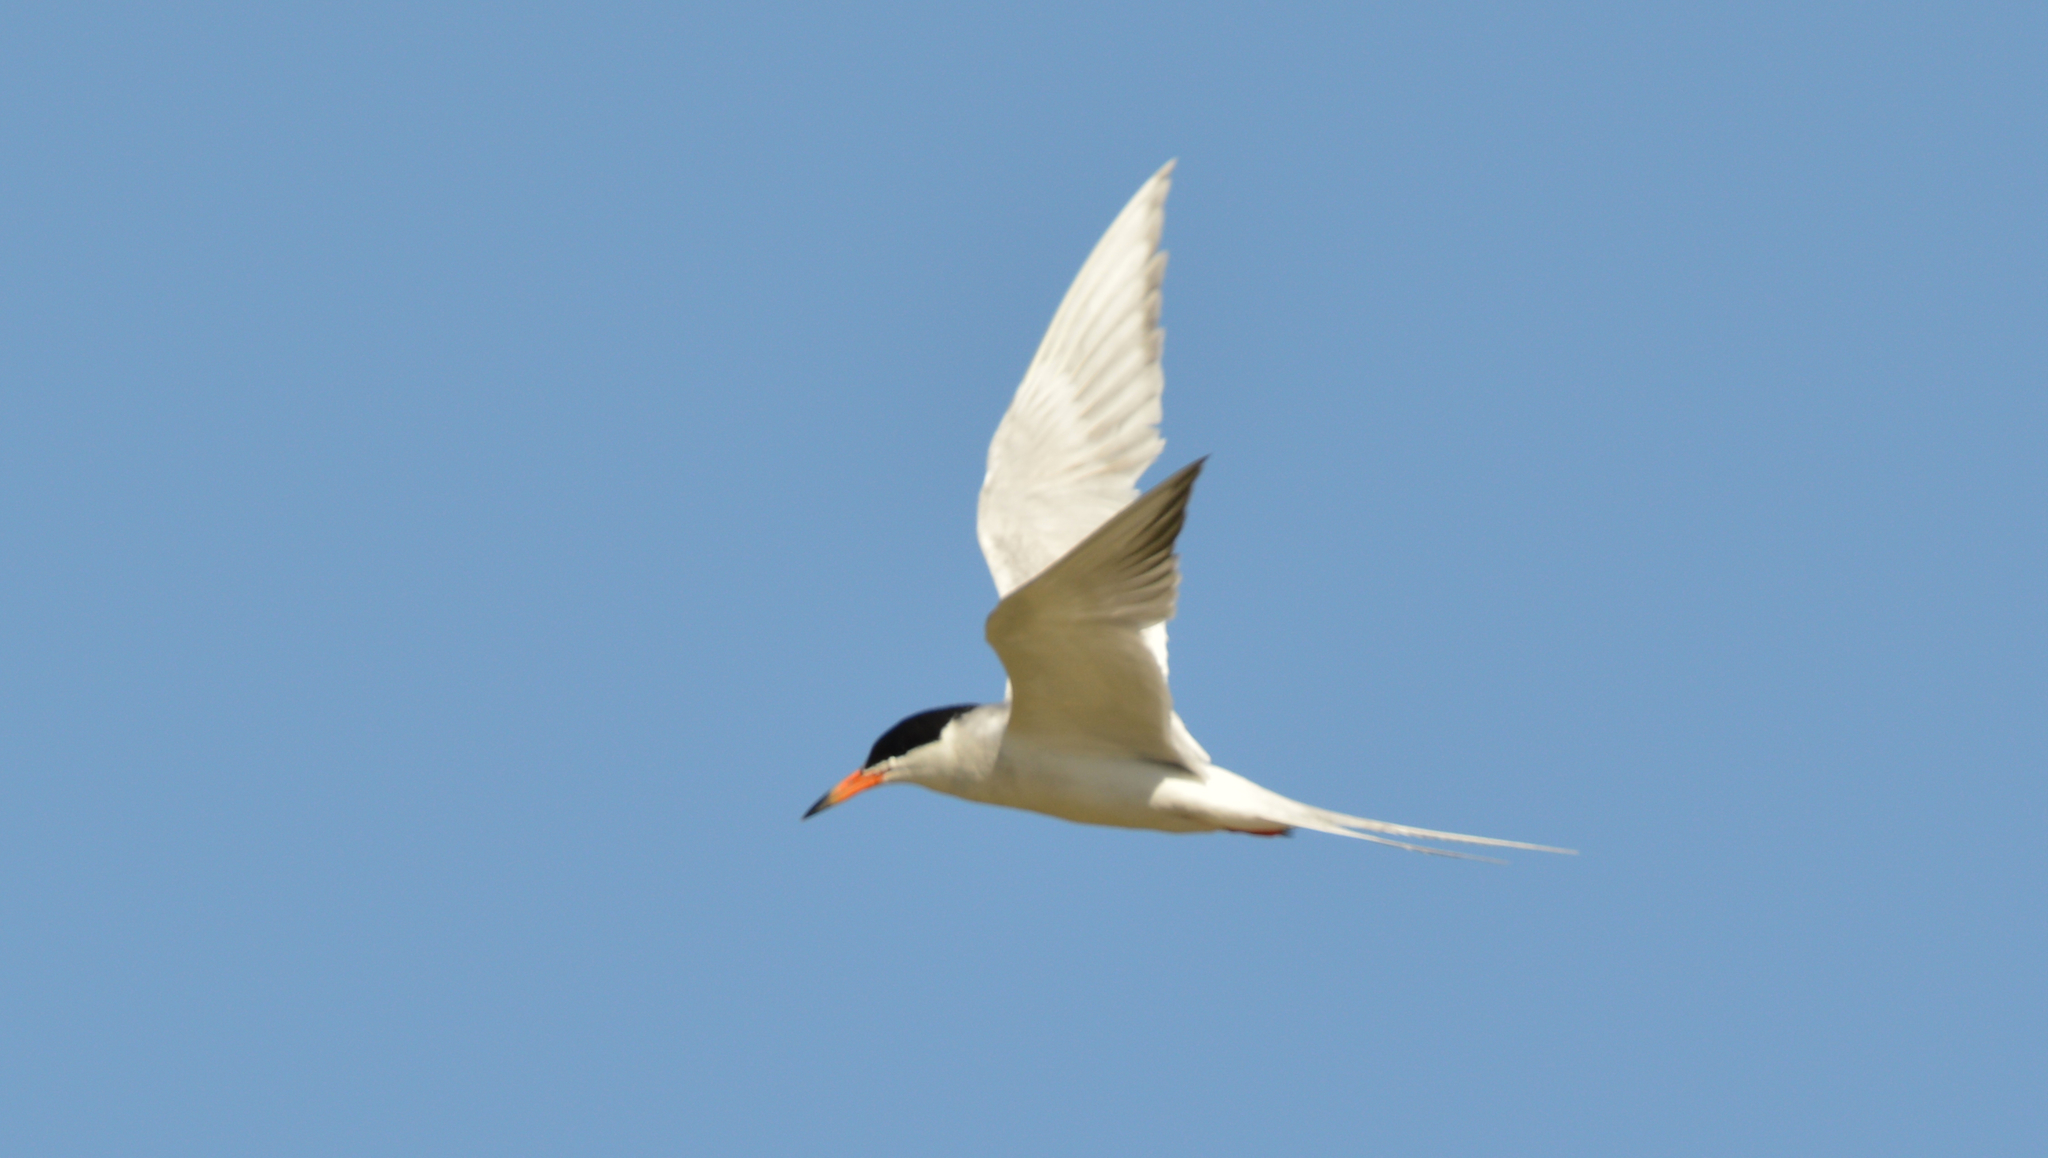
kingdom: Animalia
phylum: Chordata
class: Aves
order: Charadriiformes
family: Laridae
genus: Sterna
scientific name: Sterna forsteri
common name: Forster's tern
